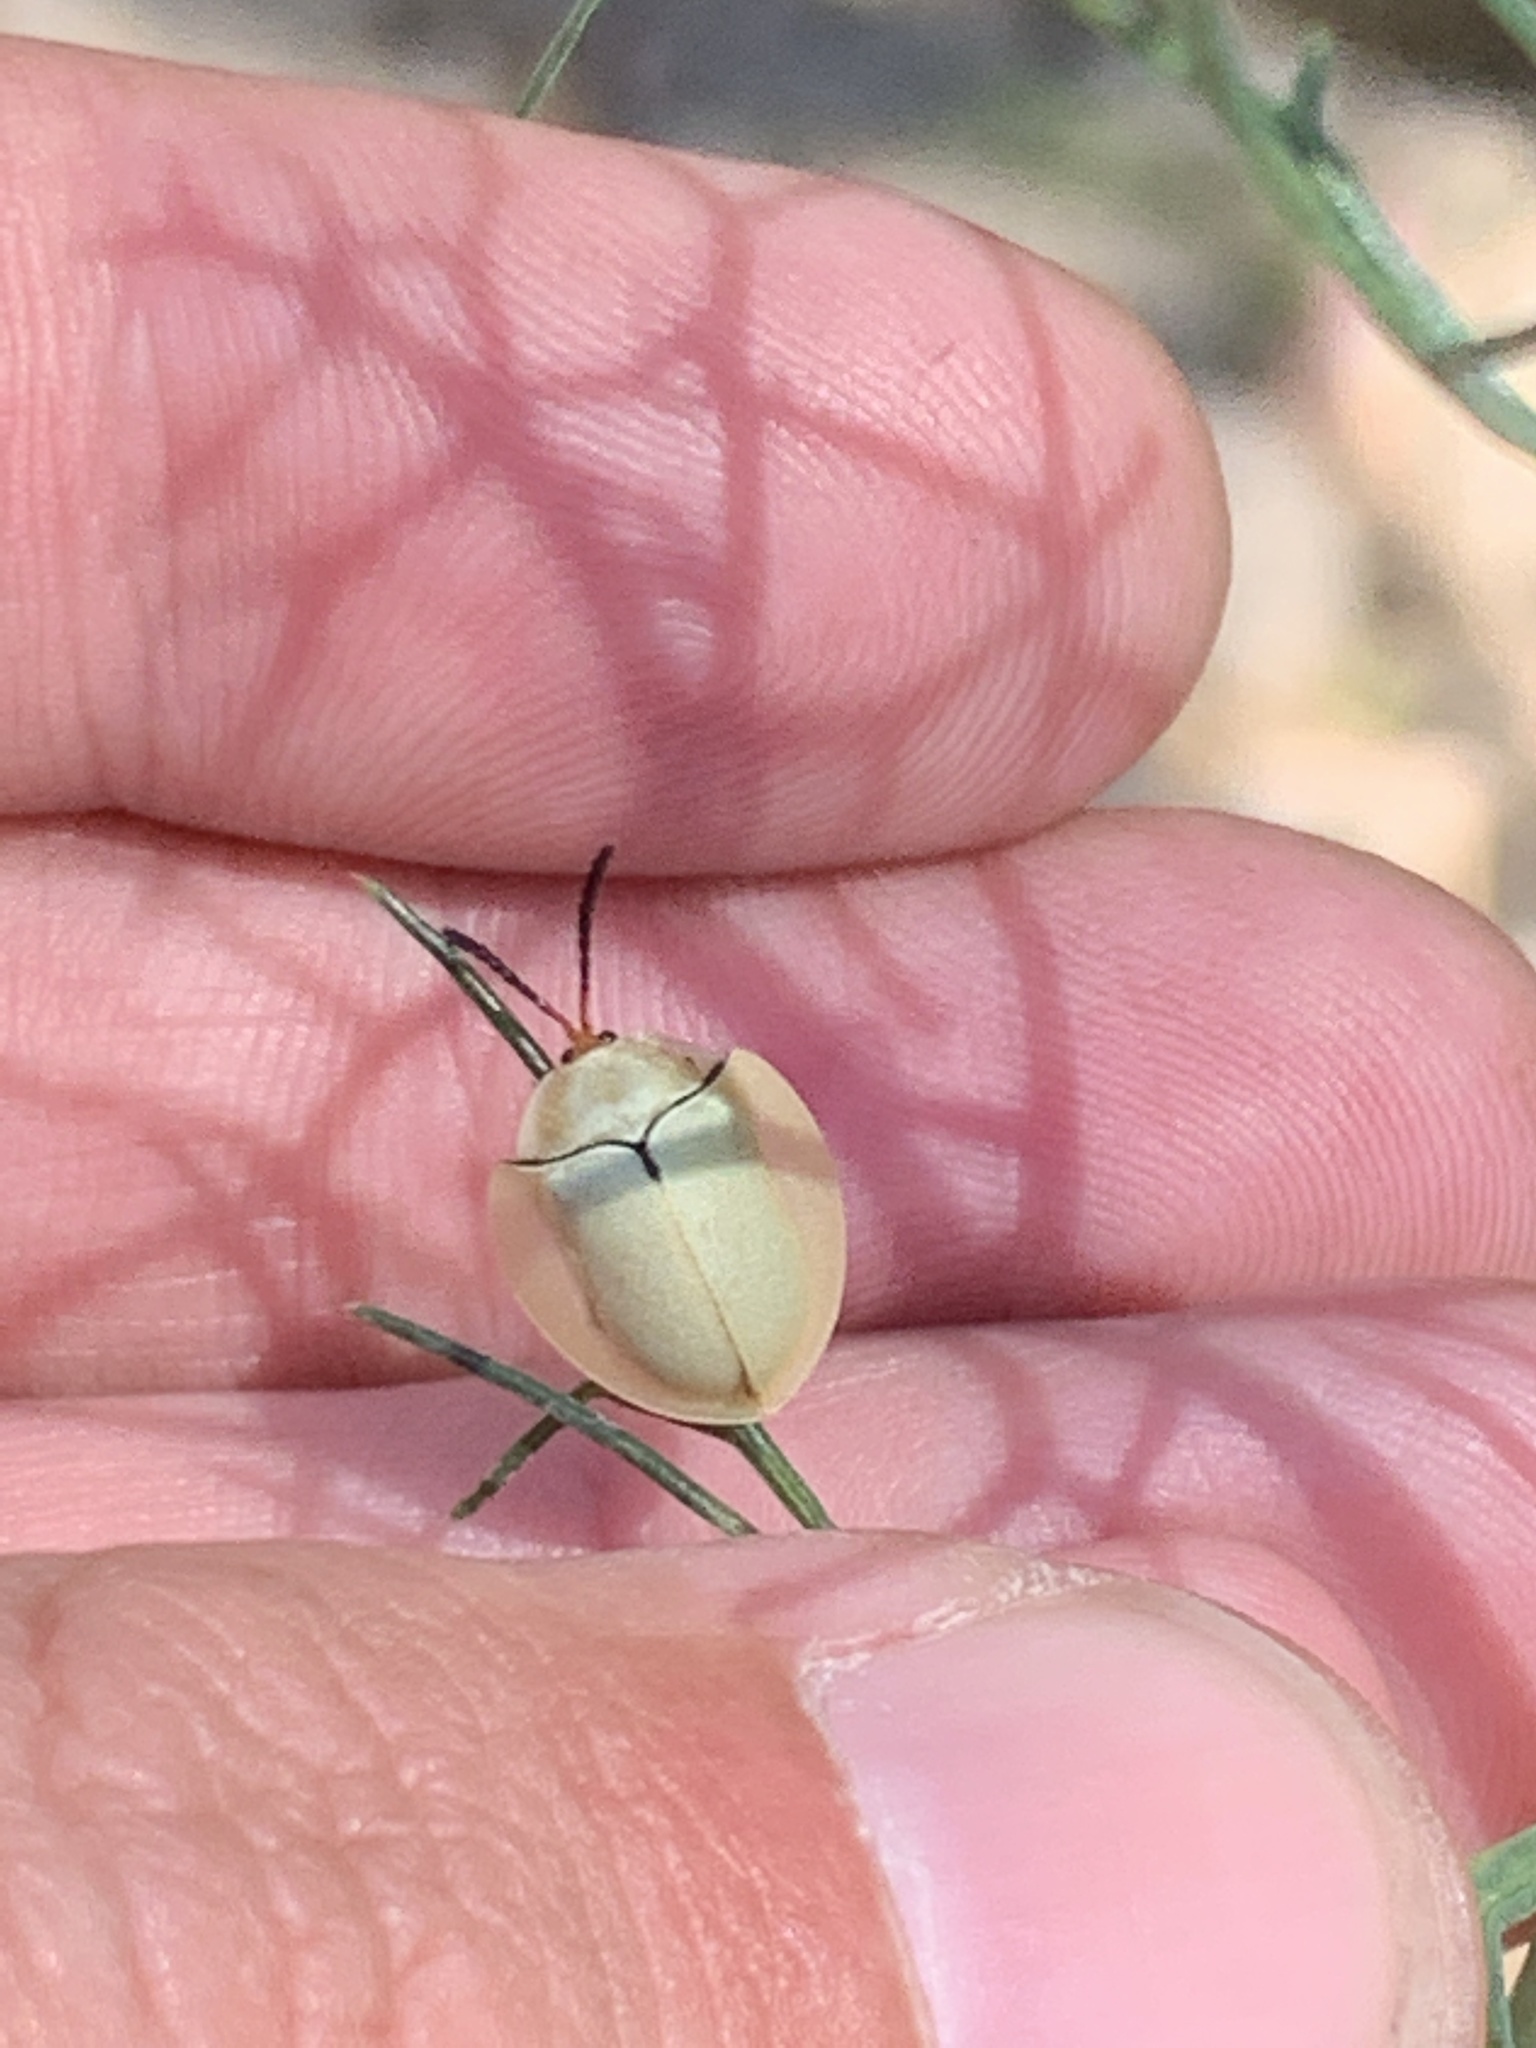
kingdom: Animalia
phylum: Arthropoda
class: Insecta
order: Coleoptera
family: Chrysomelidae
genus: Paraselenis
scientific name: Paraselenis flava
